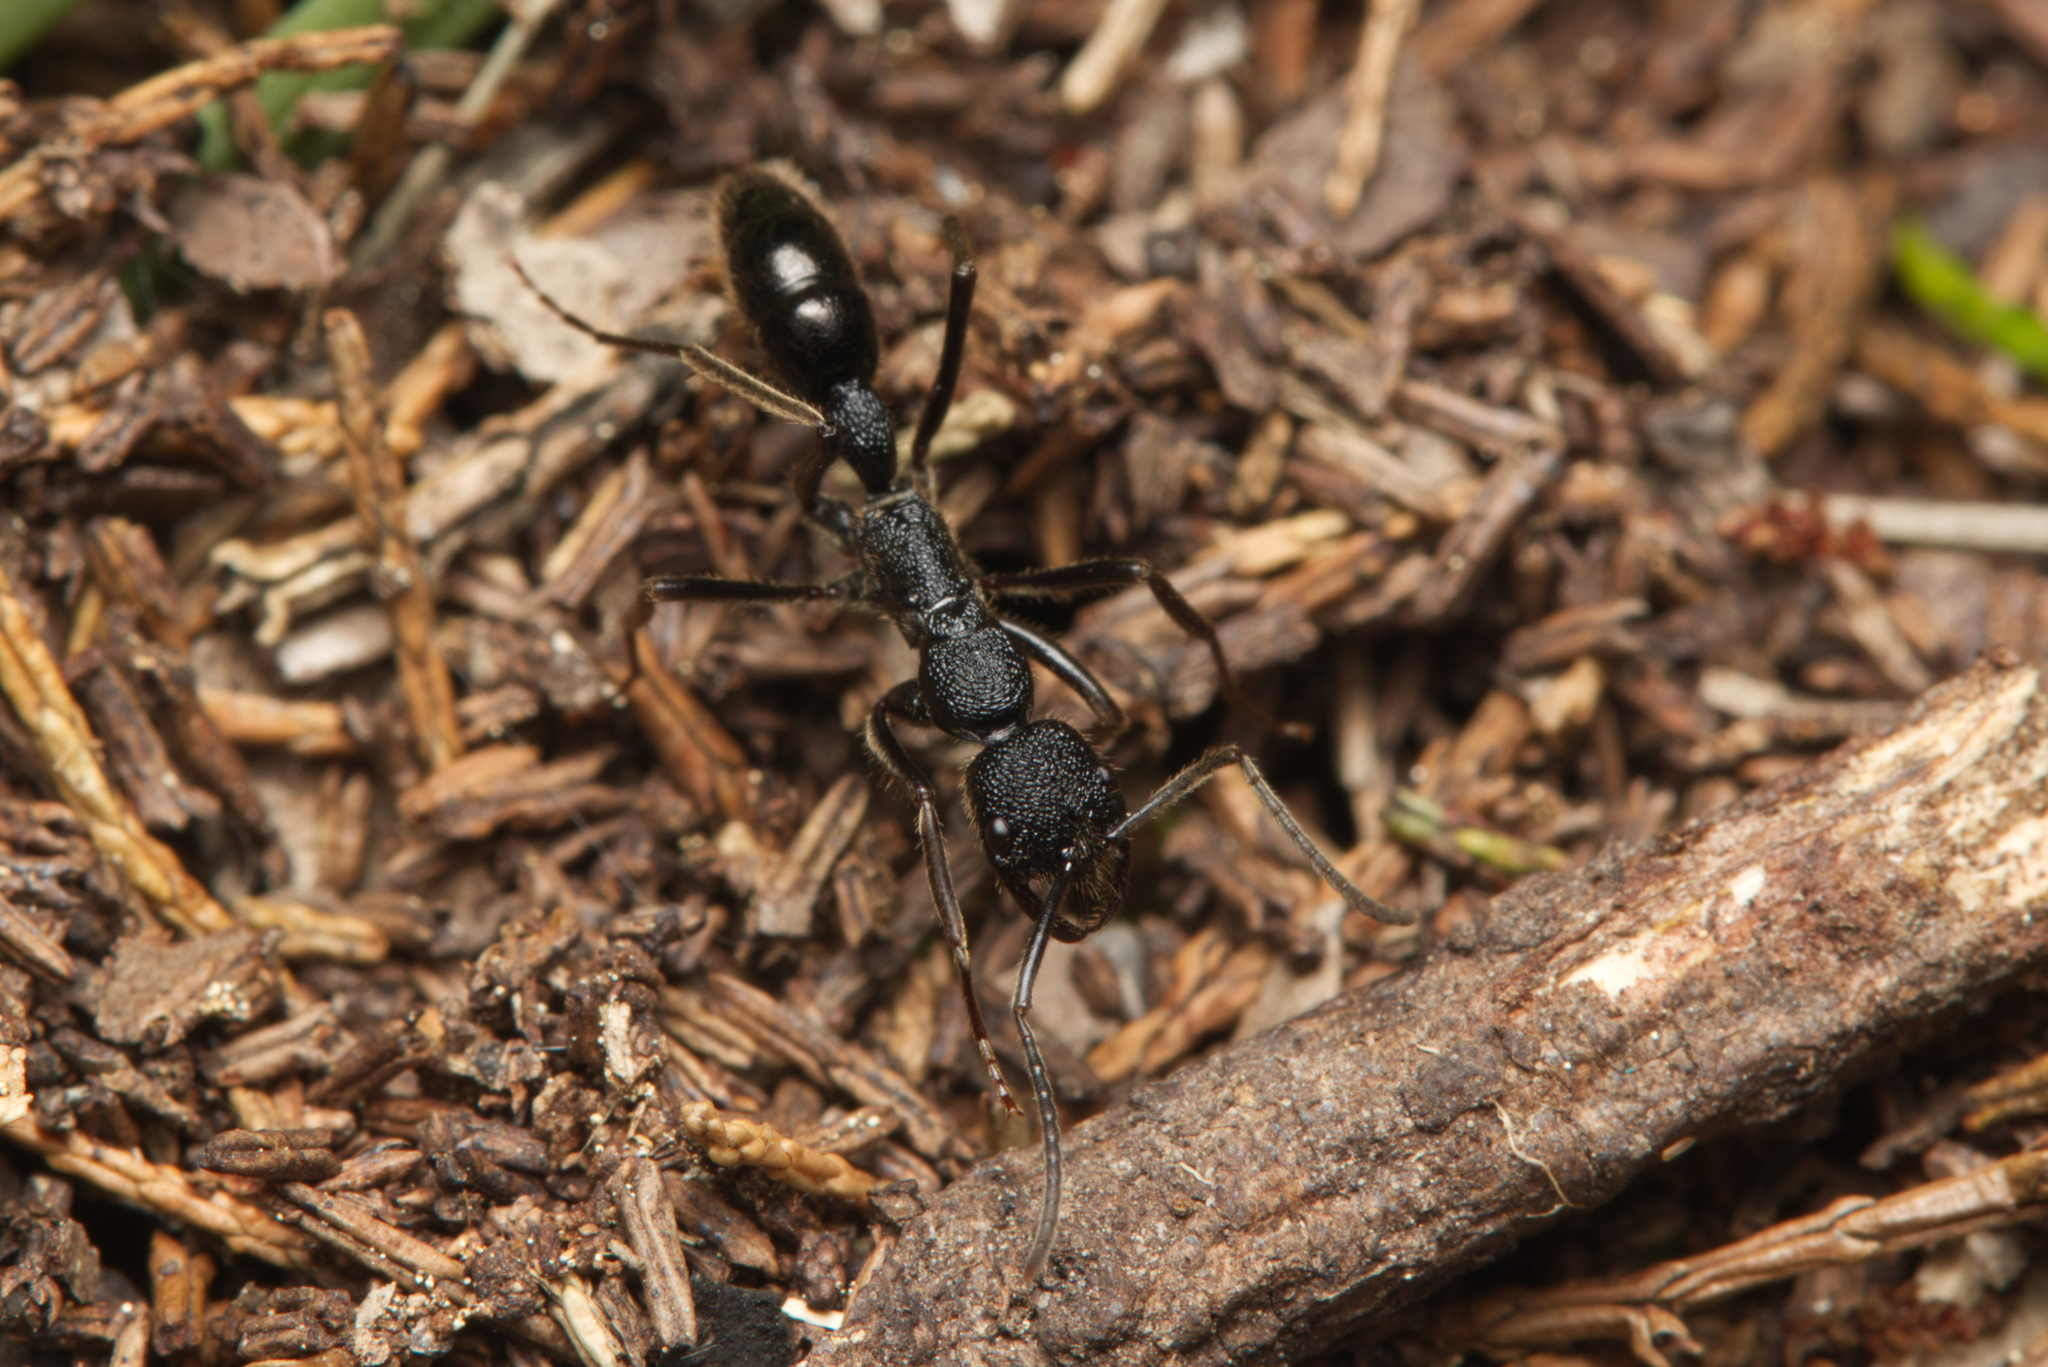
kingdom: Animalia
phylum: Arthropoda
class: Insecta
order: Hymenoptera
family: Formicidae
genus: Leptogenys
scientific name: Leptogenys sjostedti
